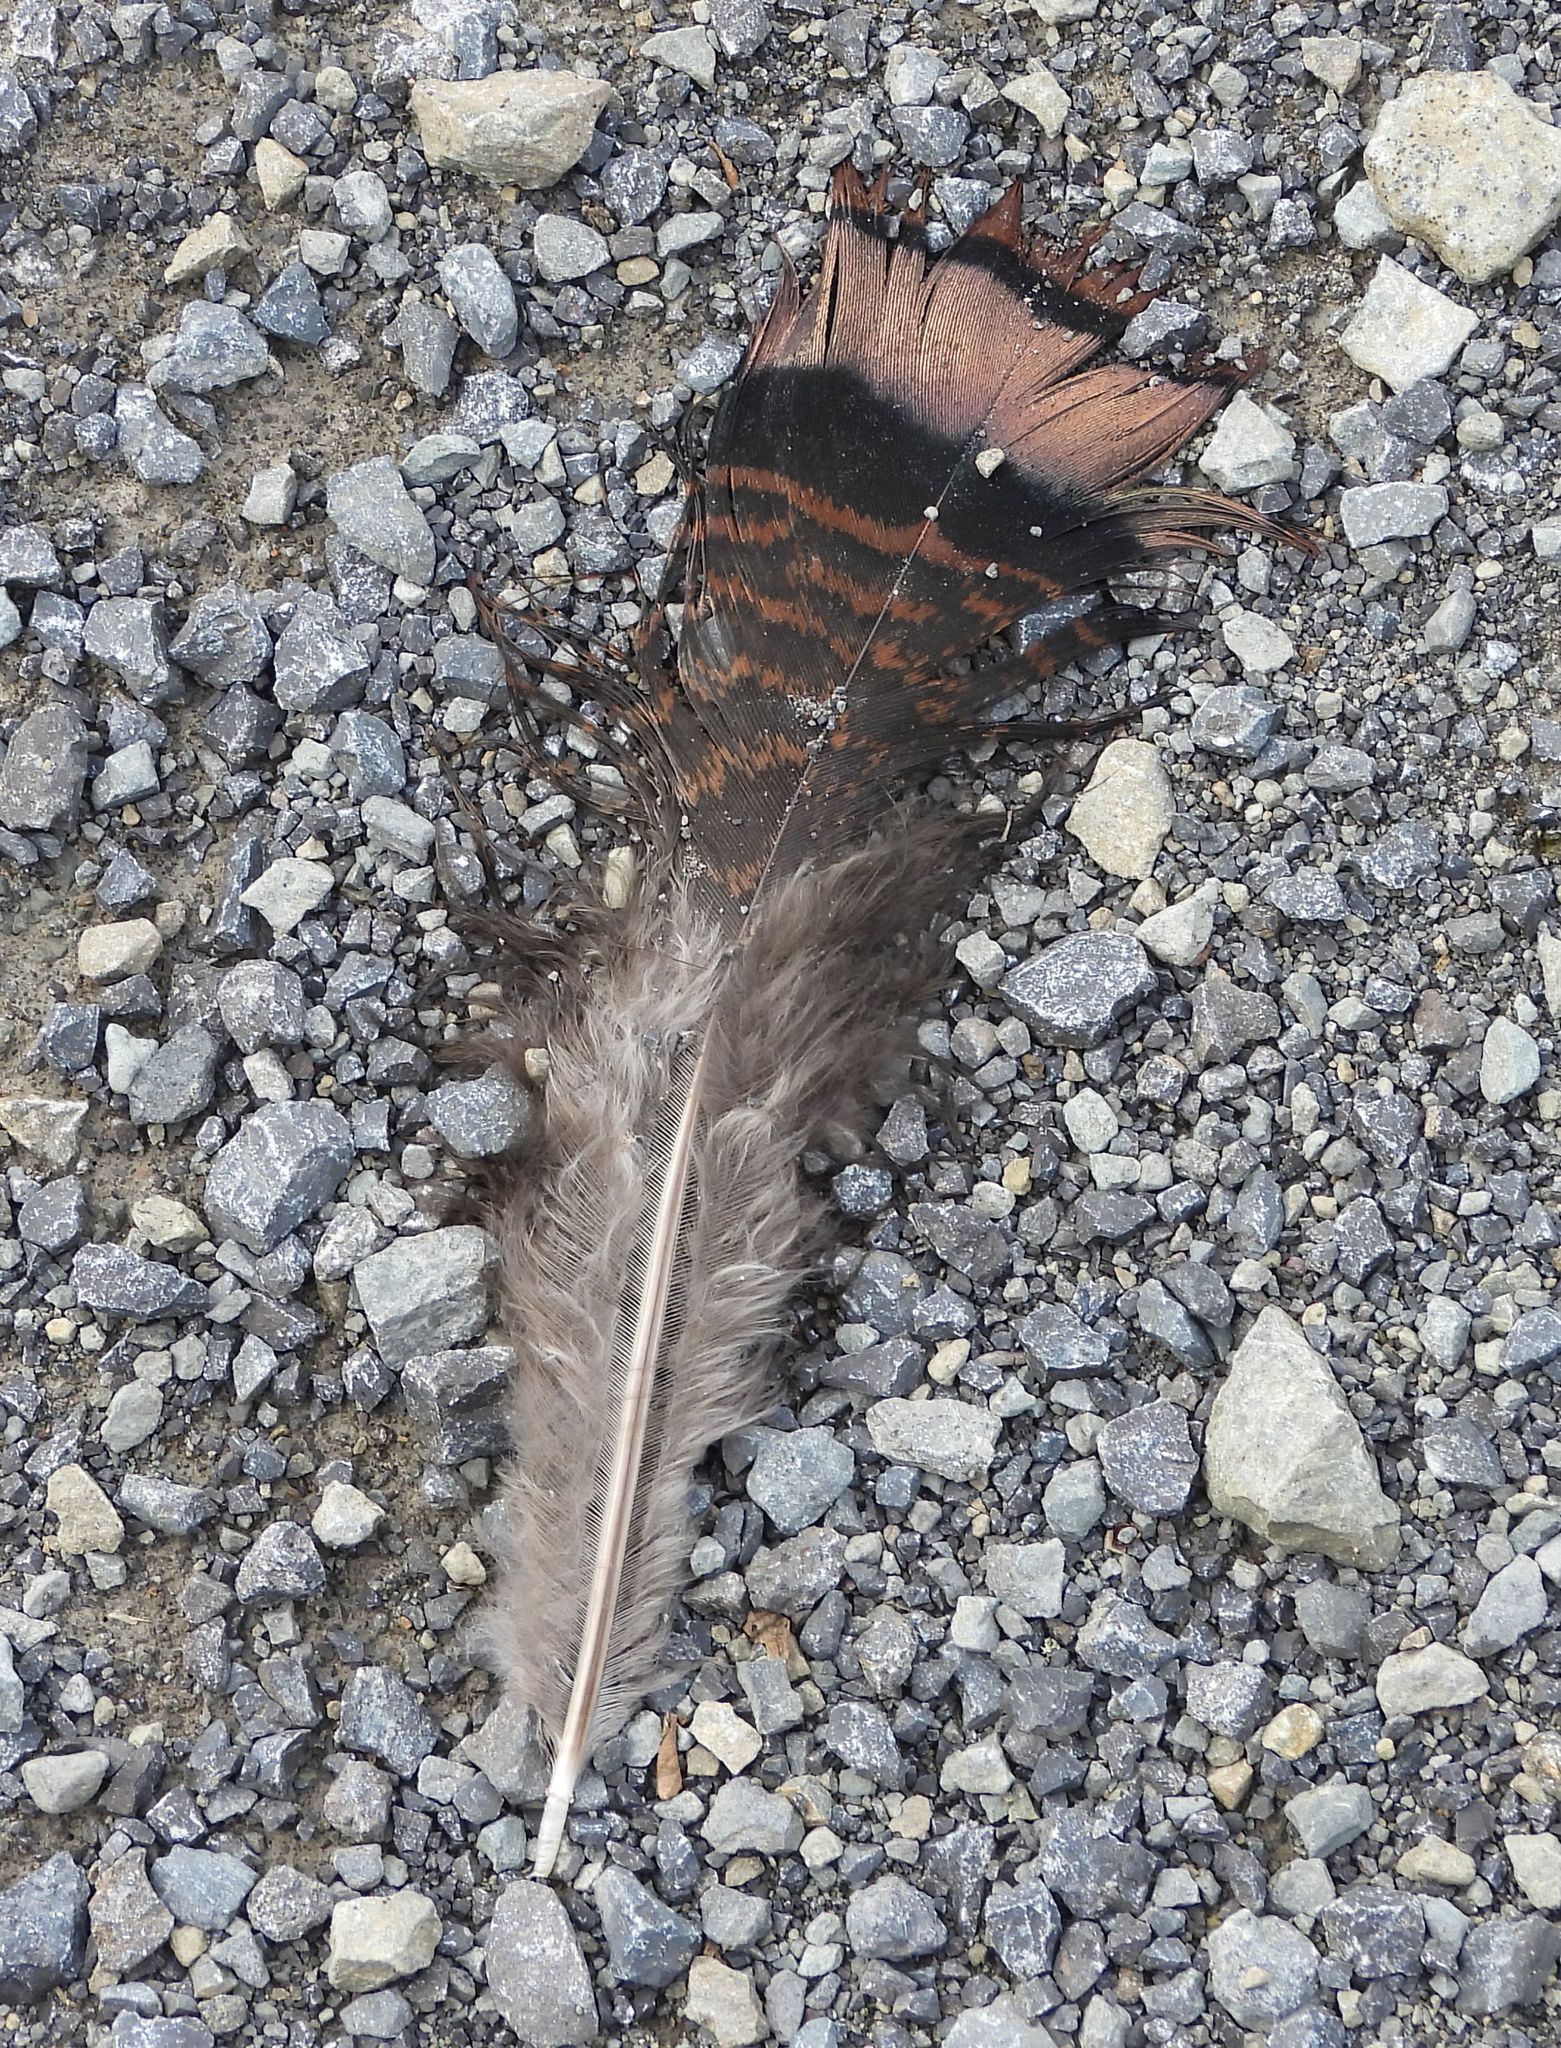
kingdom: Animalia
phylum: Chordata
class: Aves
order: Galliformes
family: Phasianidae
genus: Meleagris
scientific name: Meleagris gallopavo
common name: Wild turkey
